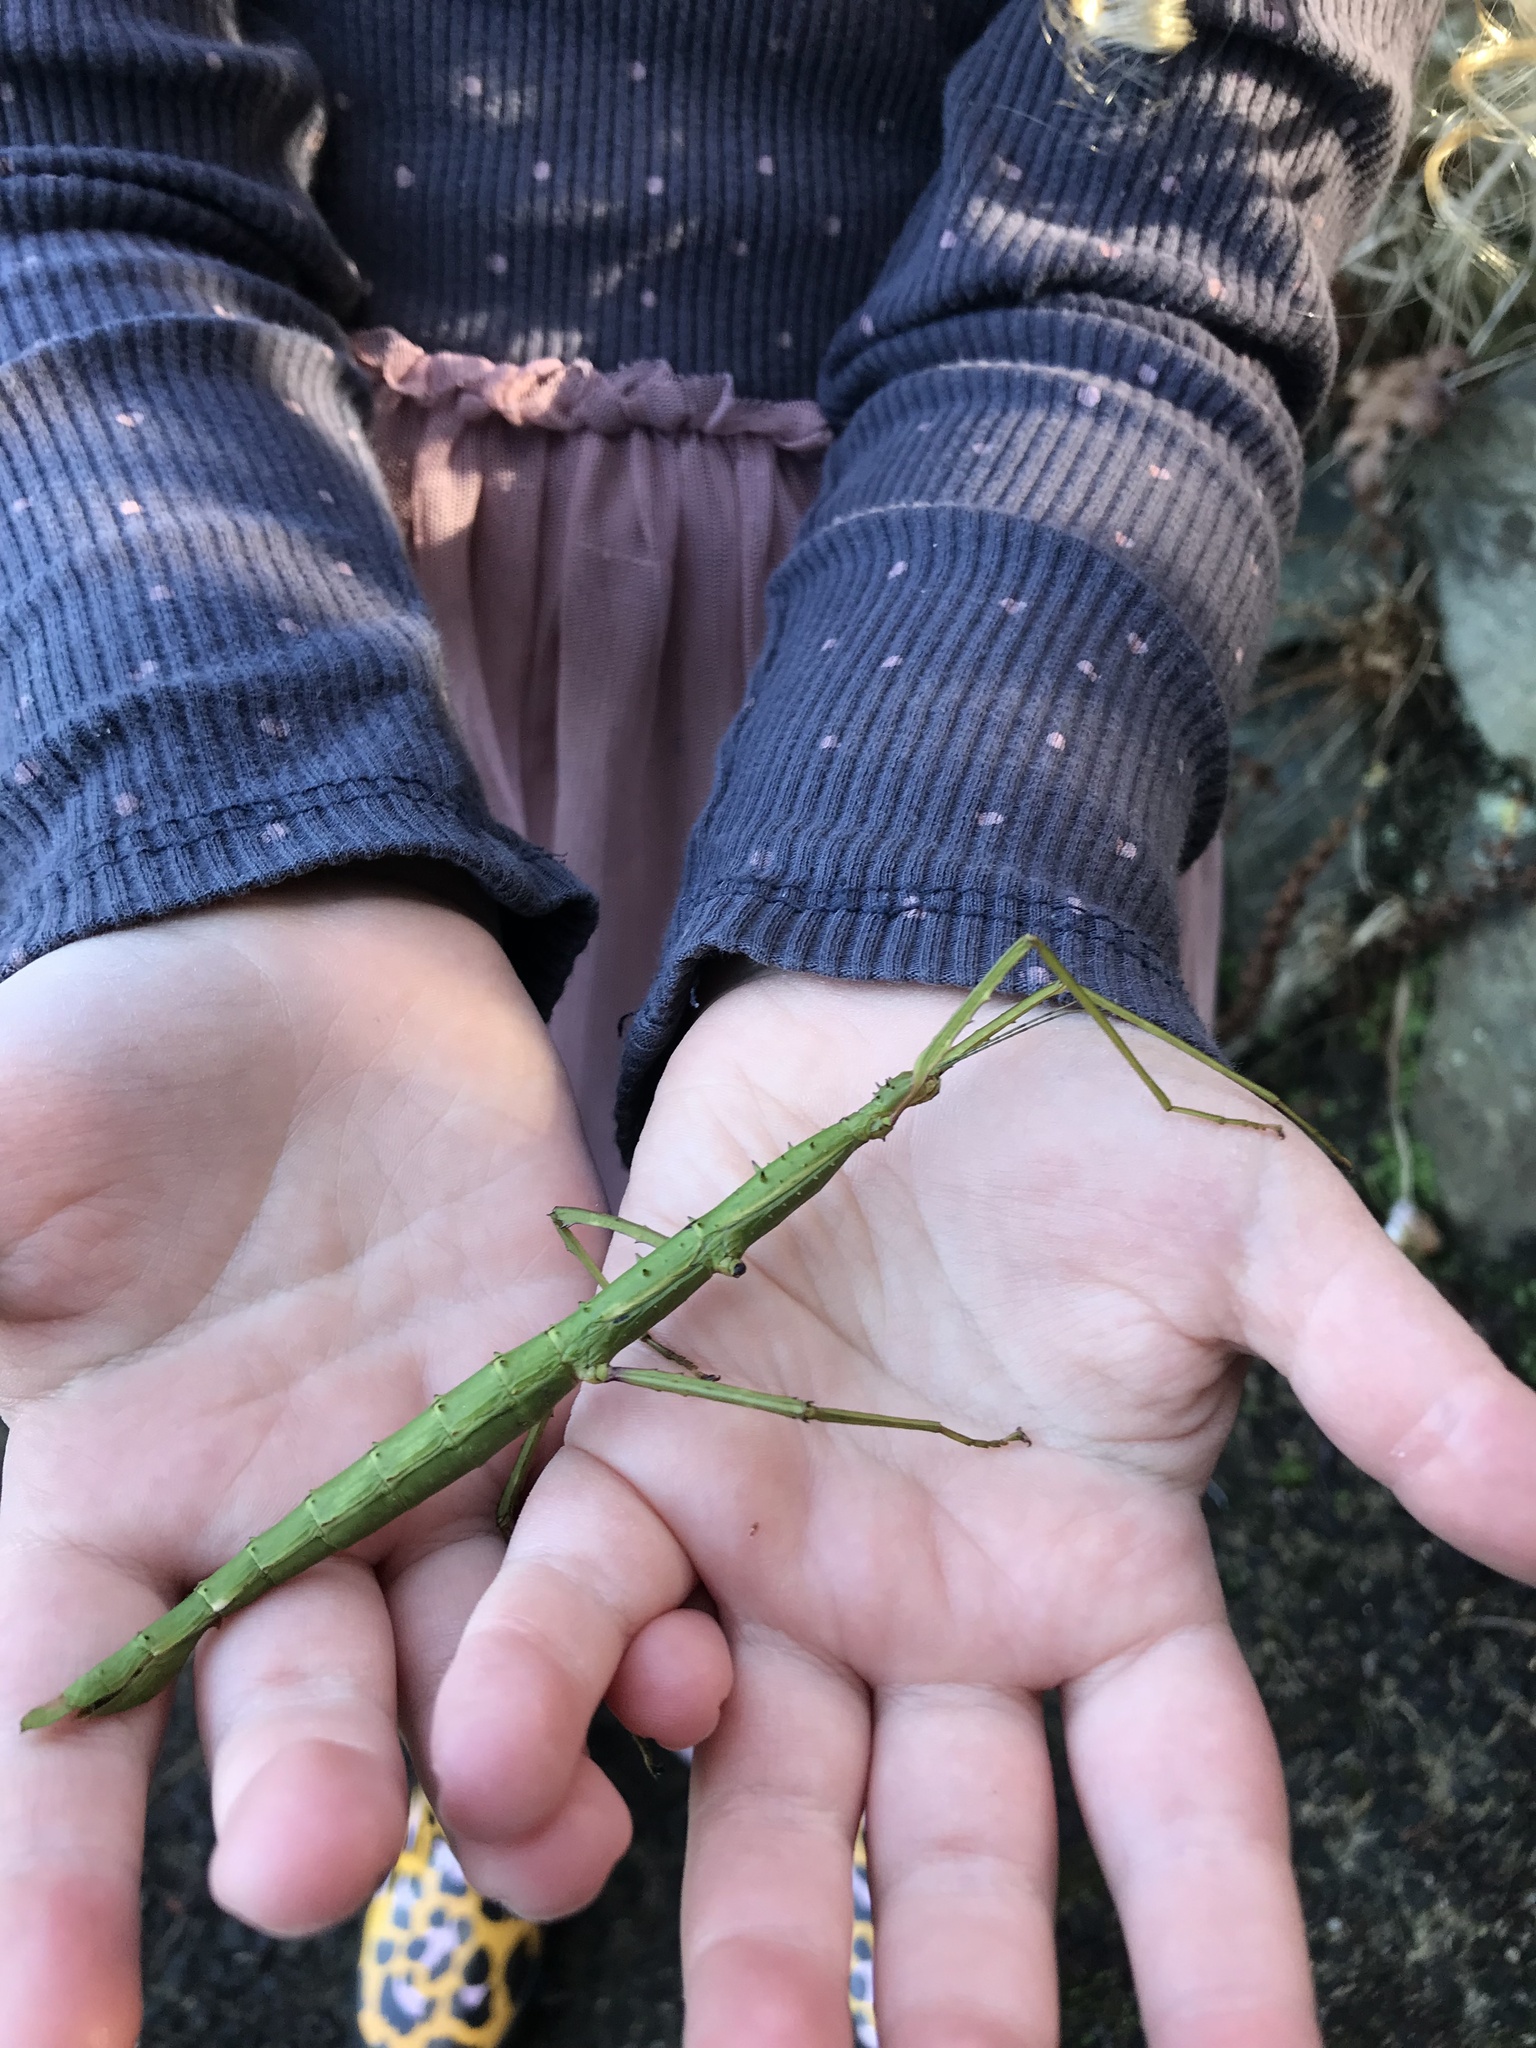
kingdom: Animalia
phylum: Arthropoda
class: Insecta
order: Phasmida
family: Phasmatidae
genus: Acanthoxyla
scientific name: Acanthoxyla prasina
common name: Black-spined stick insect
